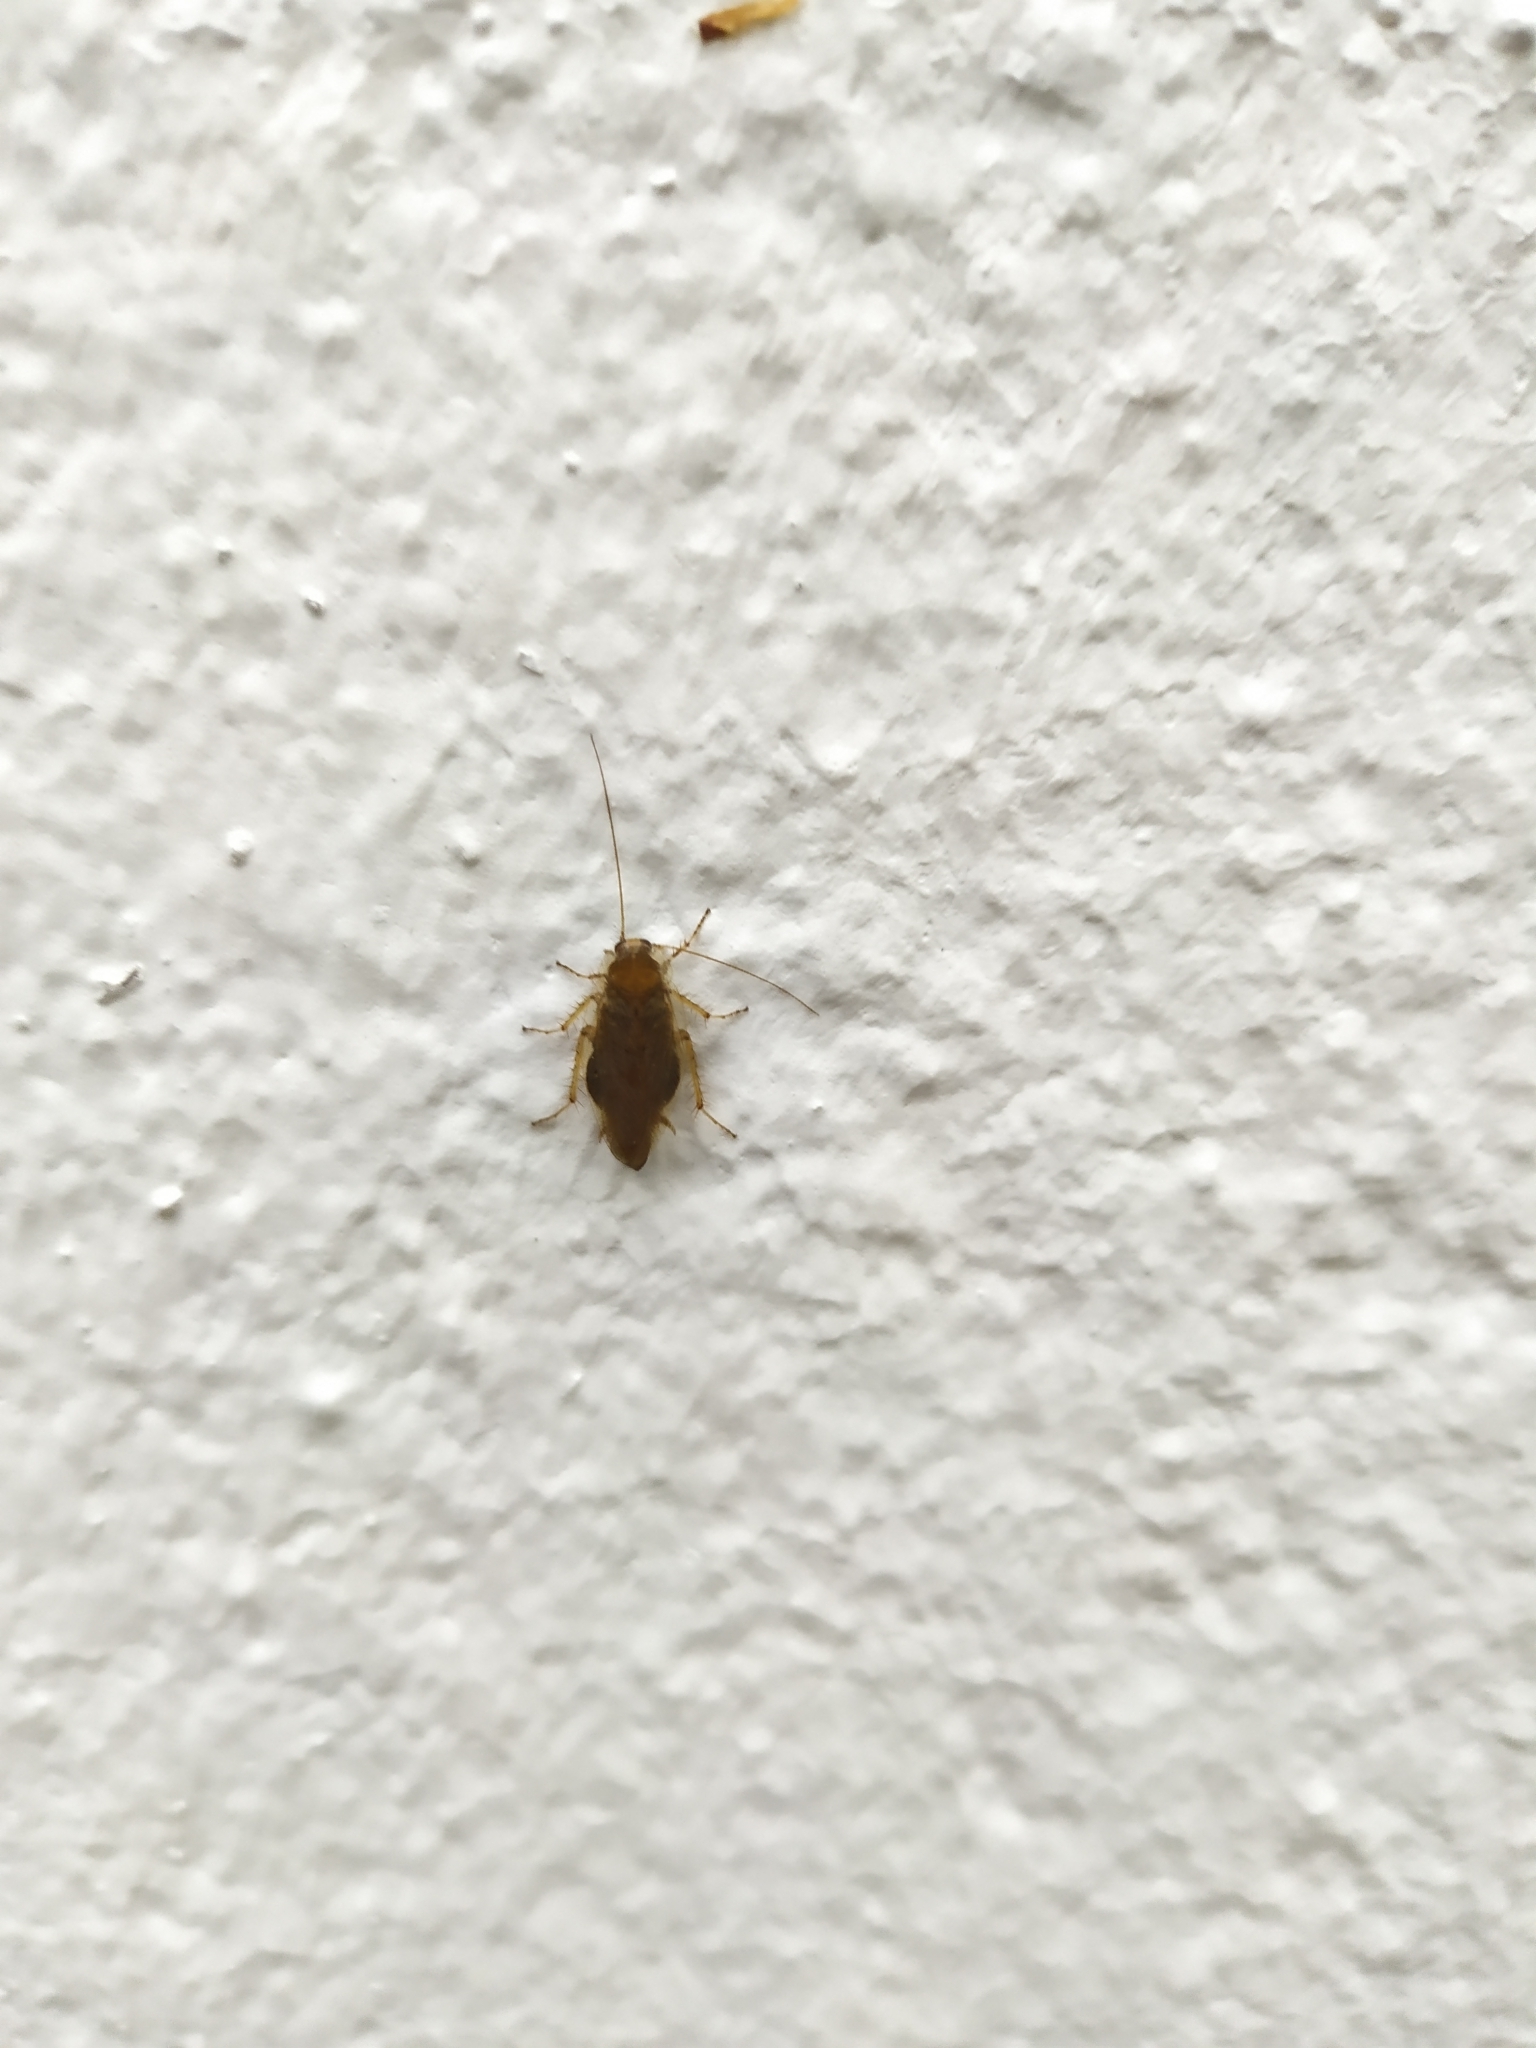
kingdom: Animalia
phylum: Arthropoda
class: Insecta
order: Blattodea
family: Ectobiidae
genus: Ectobius
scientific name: Ectobius vittiventris
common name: Garden cockroach
